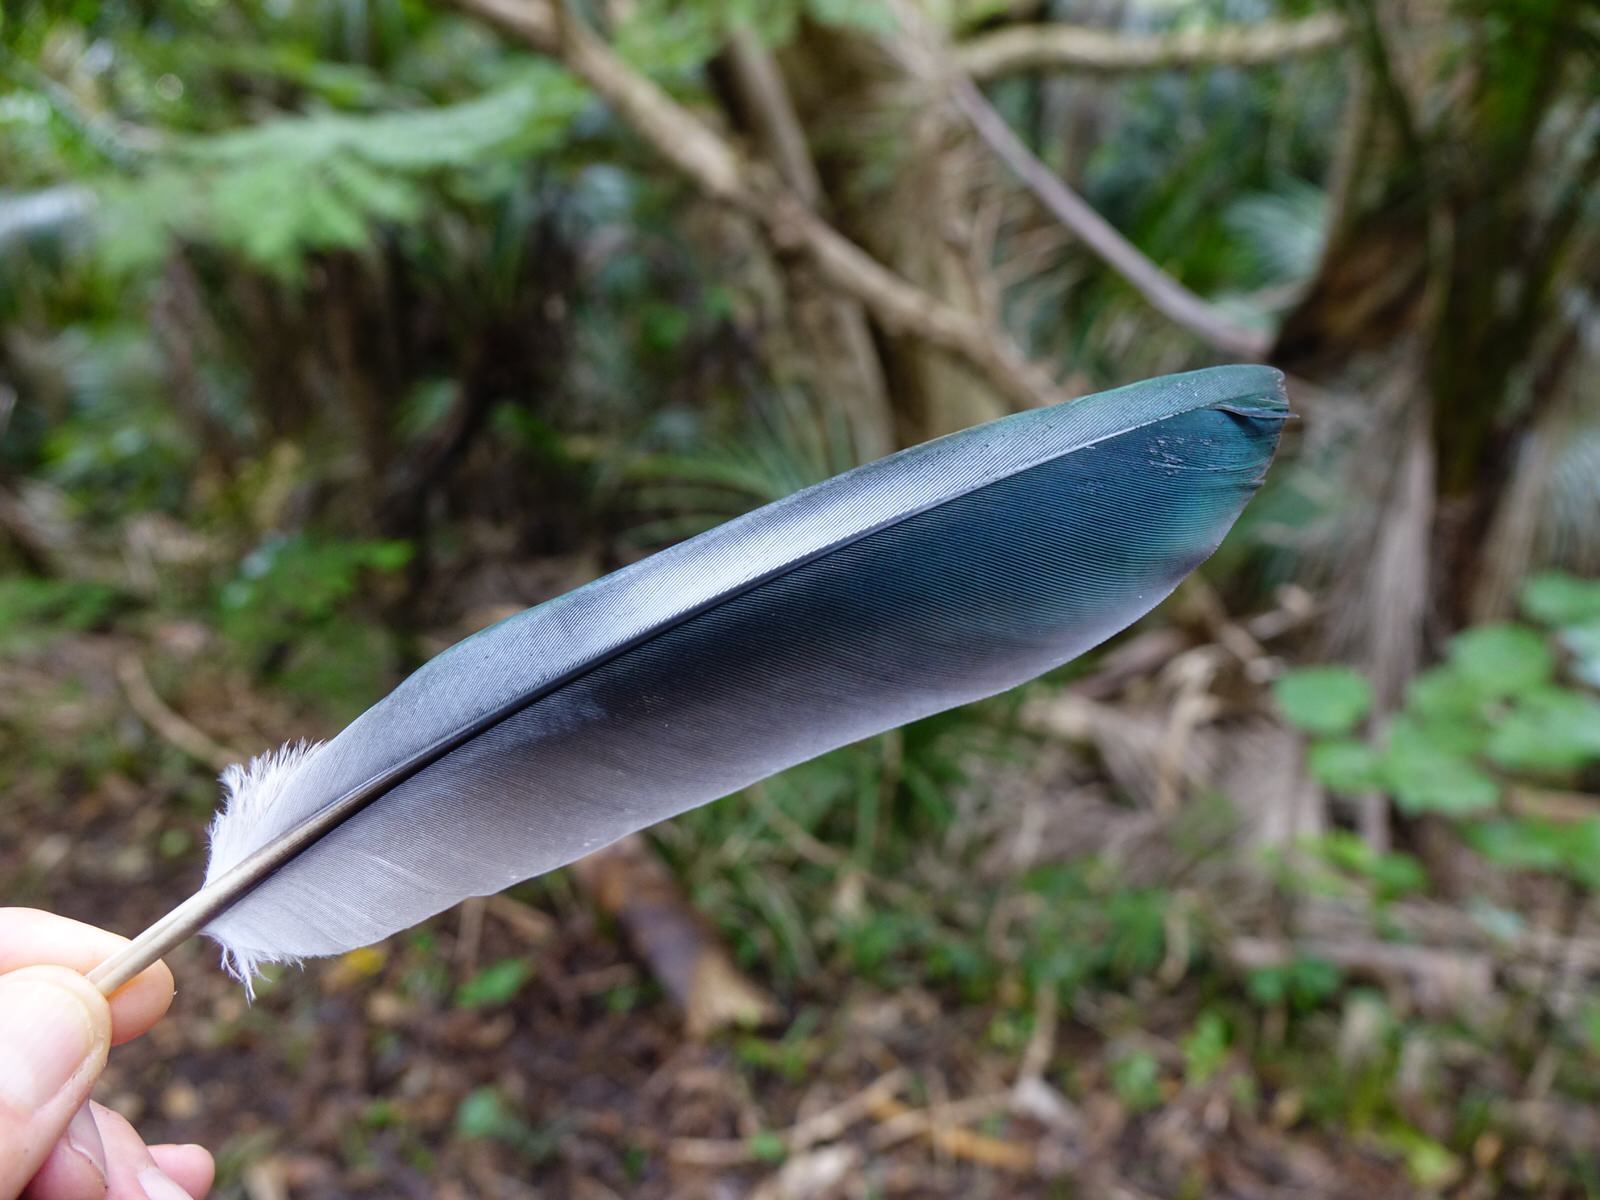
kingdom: Animalia
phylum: Chordata
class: Aves
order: Columbiformes
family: Columbidae
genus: Hemiphaga
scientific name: Hemiphaga novaeseelandiae
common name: New zealand pigeon
